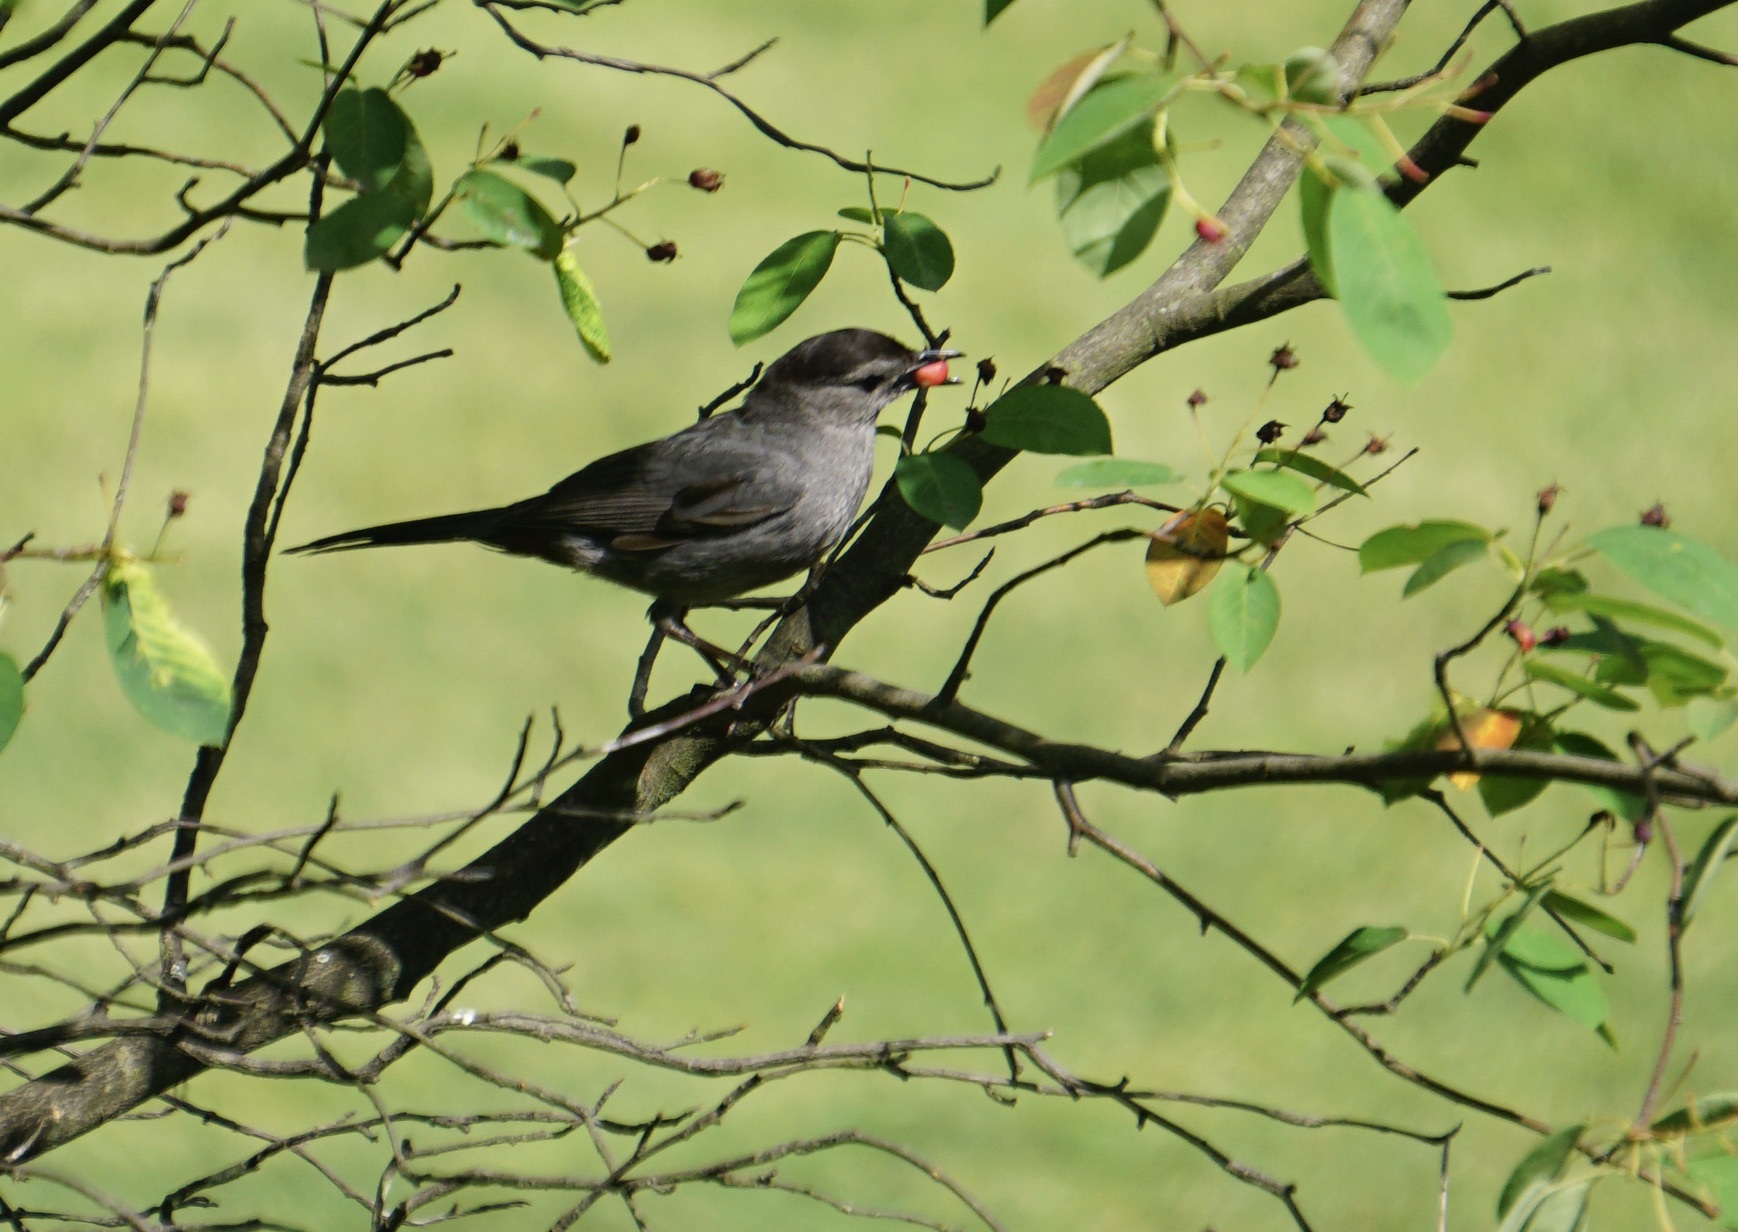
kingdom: Animalia
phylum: Chordata
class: Aves
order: Passeriformes
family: Mimidae
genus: Dumetella
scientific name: Dumetella carolinensis
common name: Gray catbird
